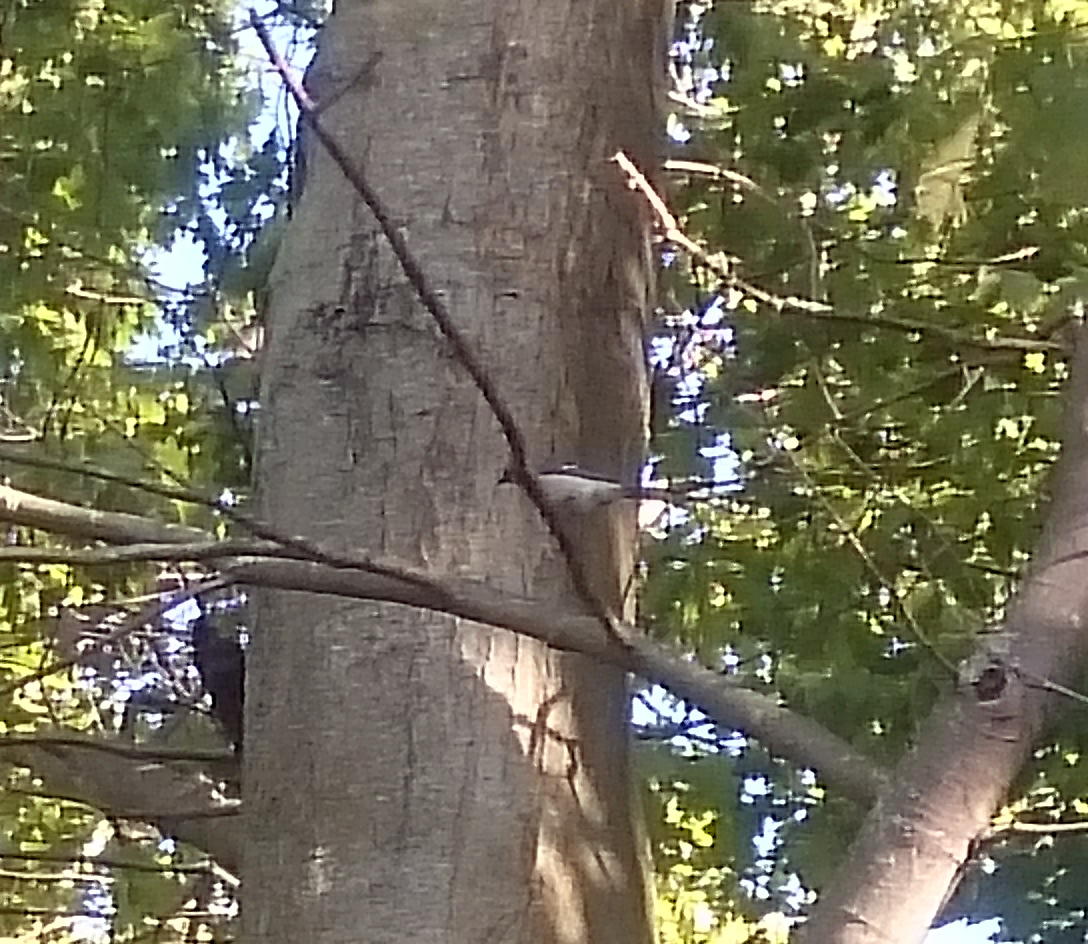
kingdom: Animalia
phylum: Chordata
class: Aves
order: Passeriformes
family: Corvidae
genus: Cyanocitta
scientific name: Cyanocitta cristata
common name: Blue jay
